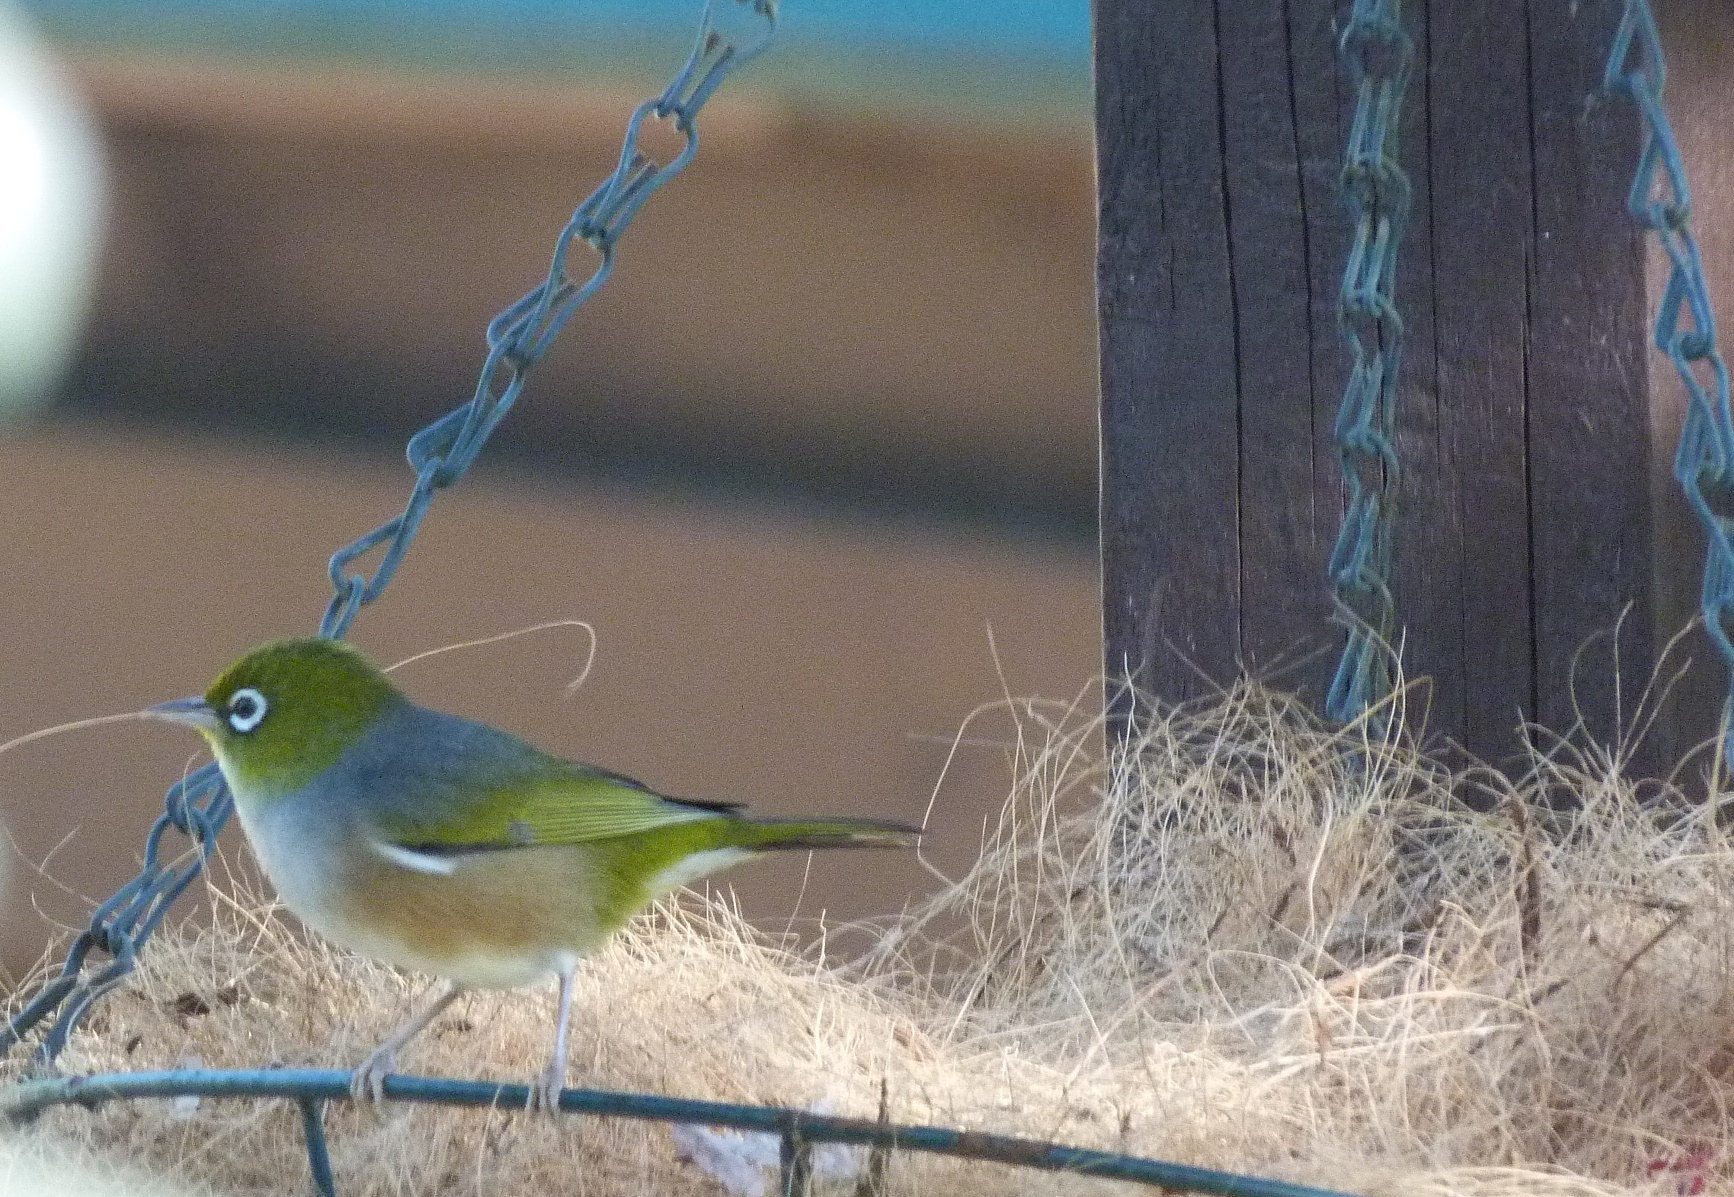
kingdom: Animalia
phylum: Chordata
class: Aves
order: Passeriformes
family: Zosteropidae
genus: Zosterops
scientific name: Zosterops lateralis
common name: Silvereye
